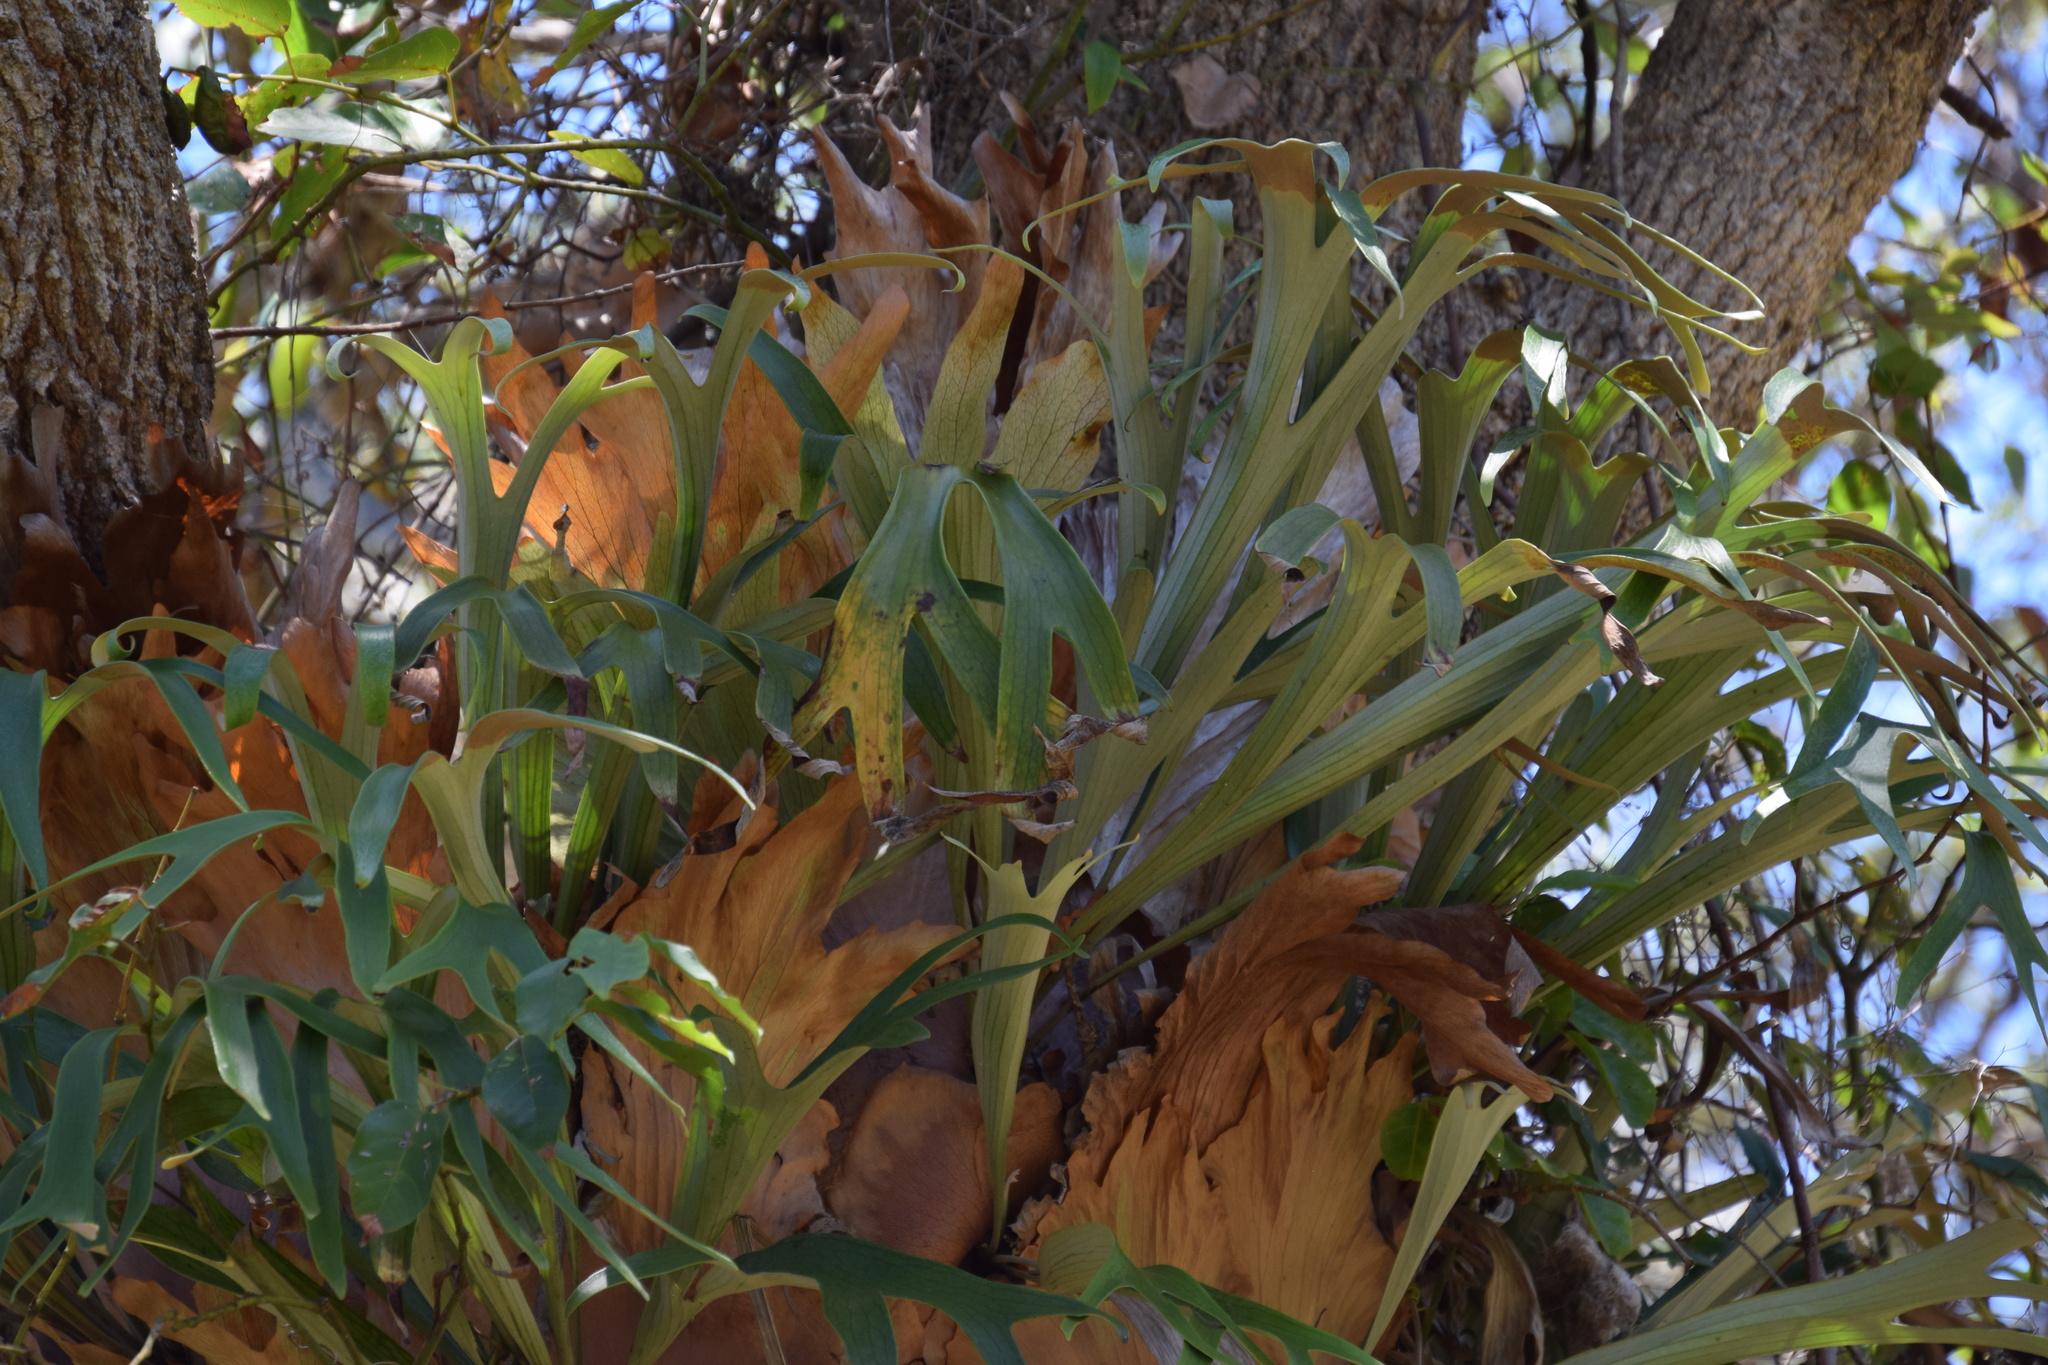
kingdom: Plantae
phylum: Tracheophyta
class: Polypodiopsida
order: Polypodiales
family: Polypodiaceae
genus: Platycerium
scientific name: Platycerium bifurcatum
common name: Elkhorn fern
